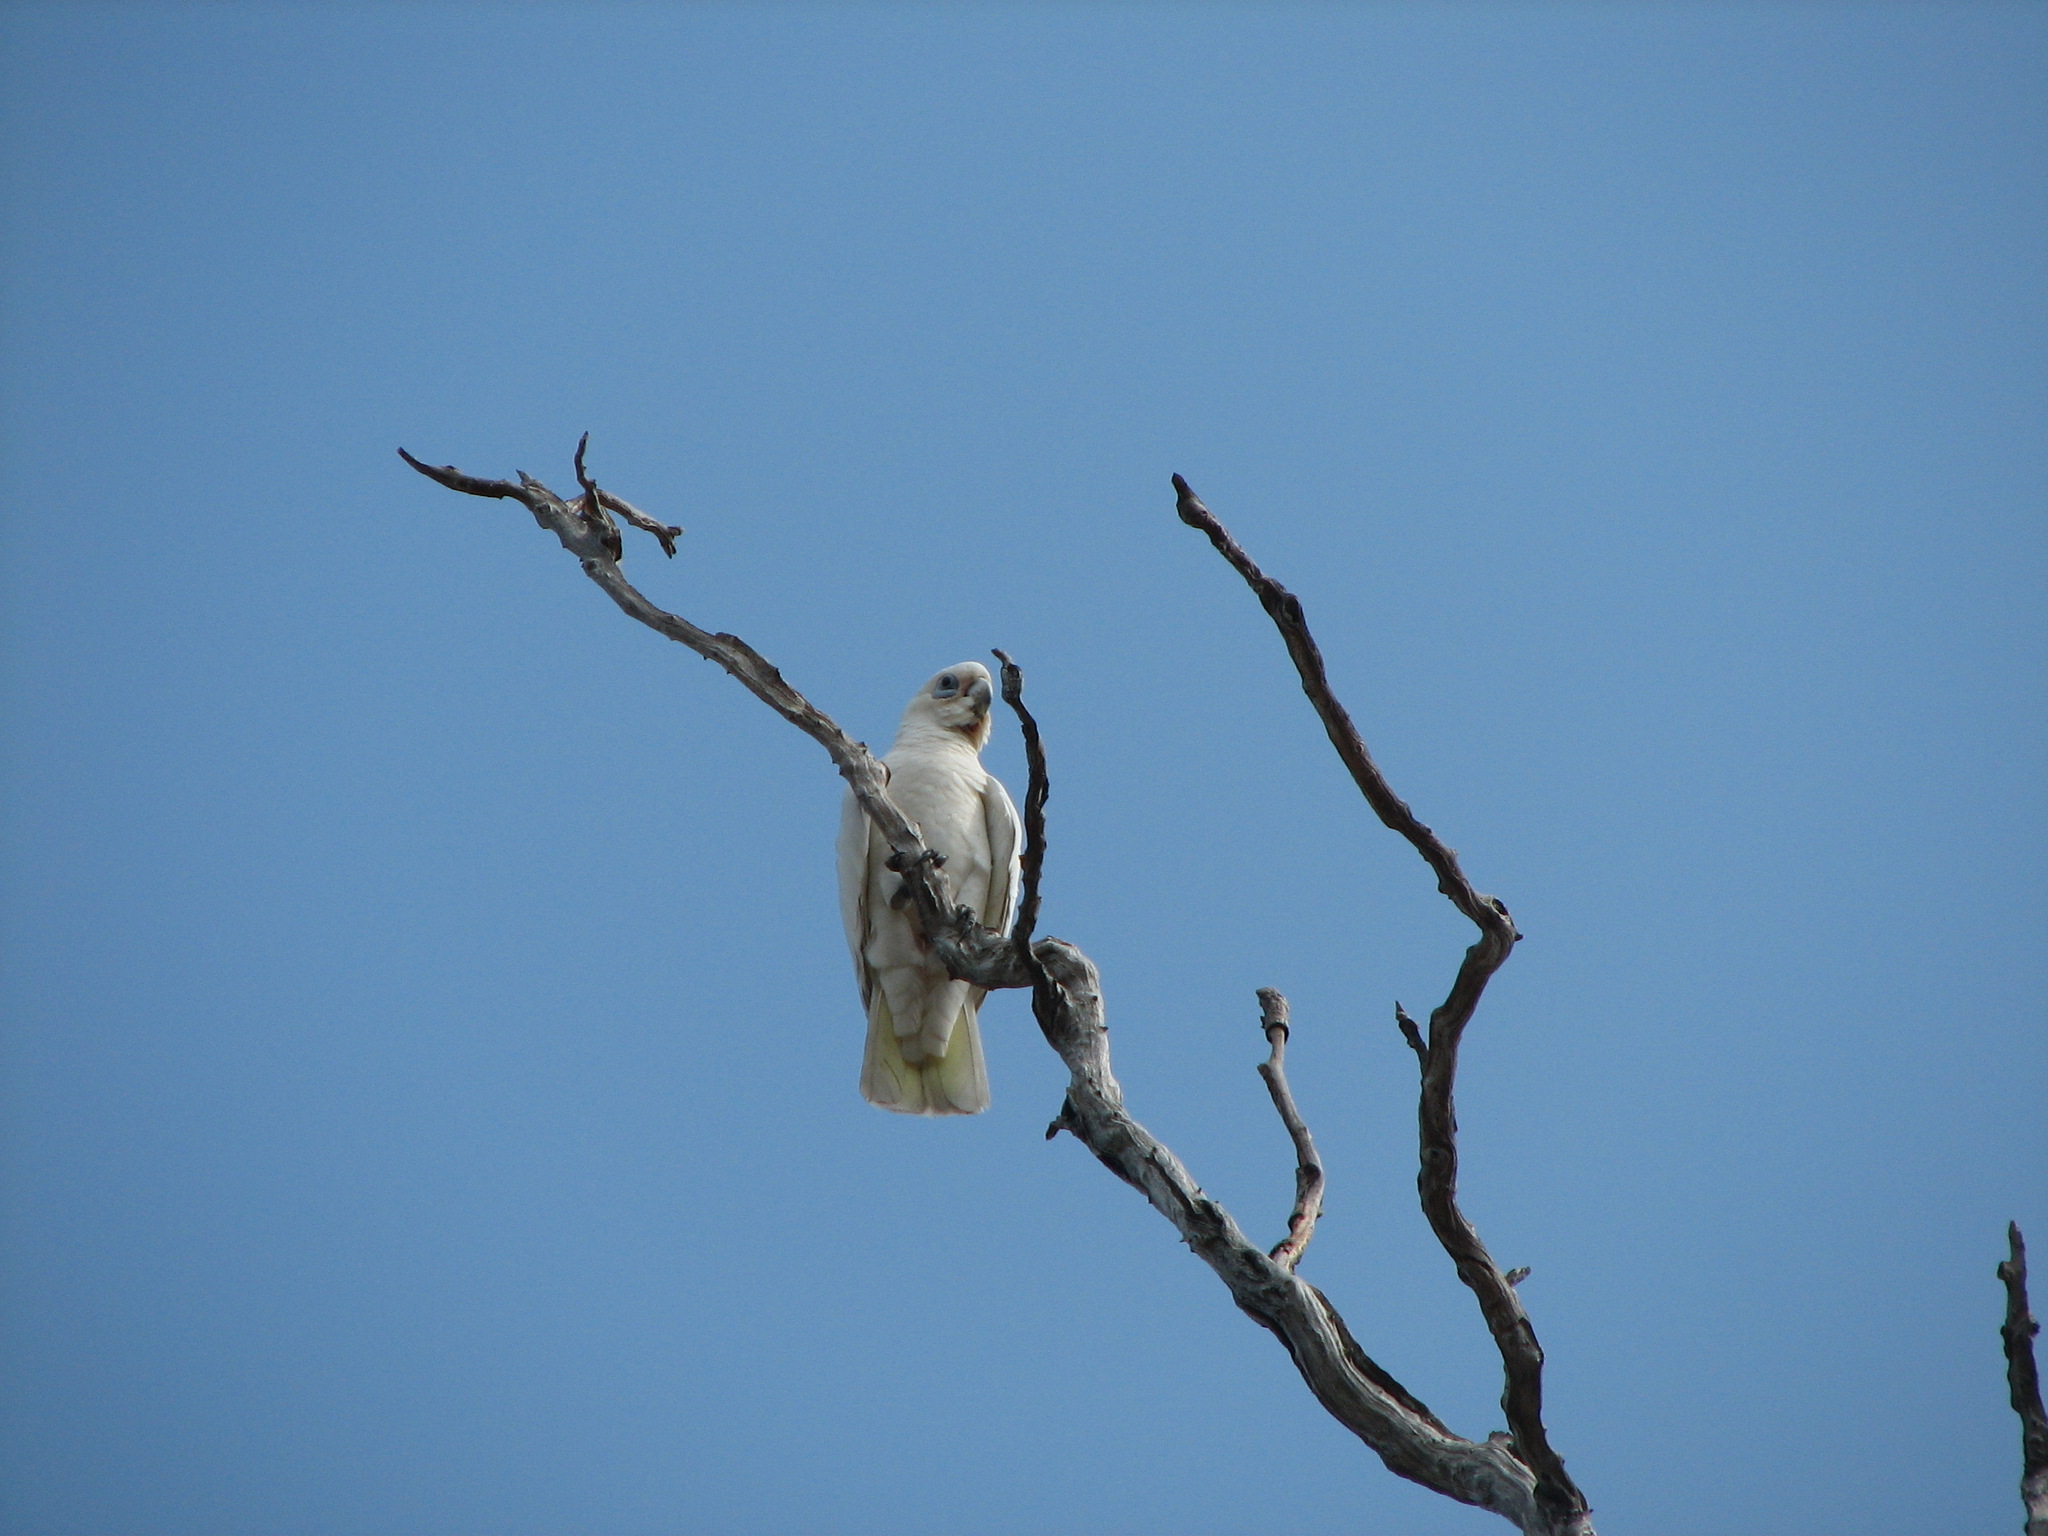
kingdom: Animalia
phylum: Chordata
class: Aves
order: Psittaciformes
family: Psittacidae
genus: Cacatua
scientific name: Cacatua sanguinea
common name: Little corella
